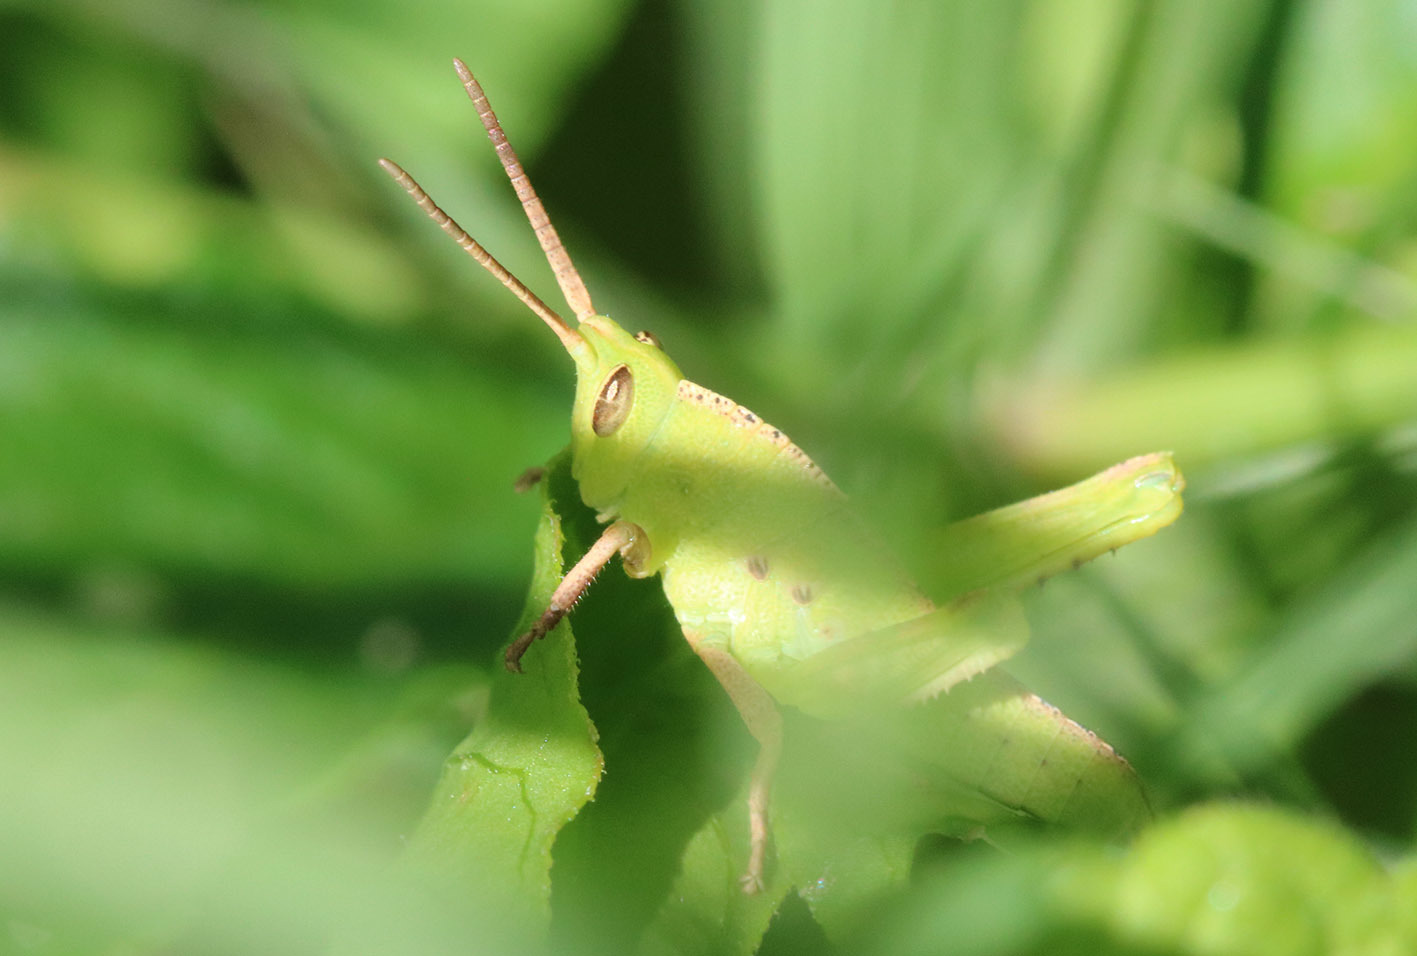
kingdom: Animalia
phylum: Arthropoda
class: Insecta
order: Orthoptera
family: Romaleidae
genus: Staleochlora
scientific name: Staleochlora viridicata
